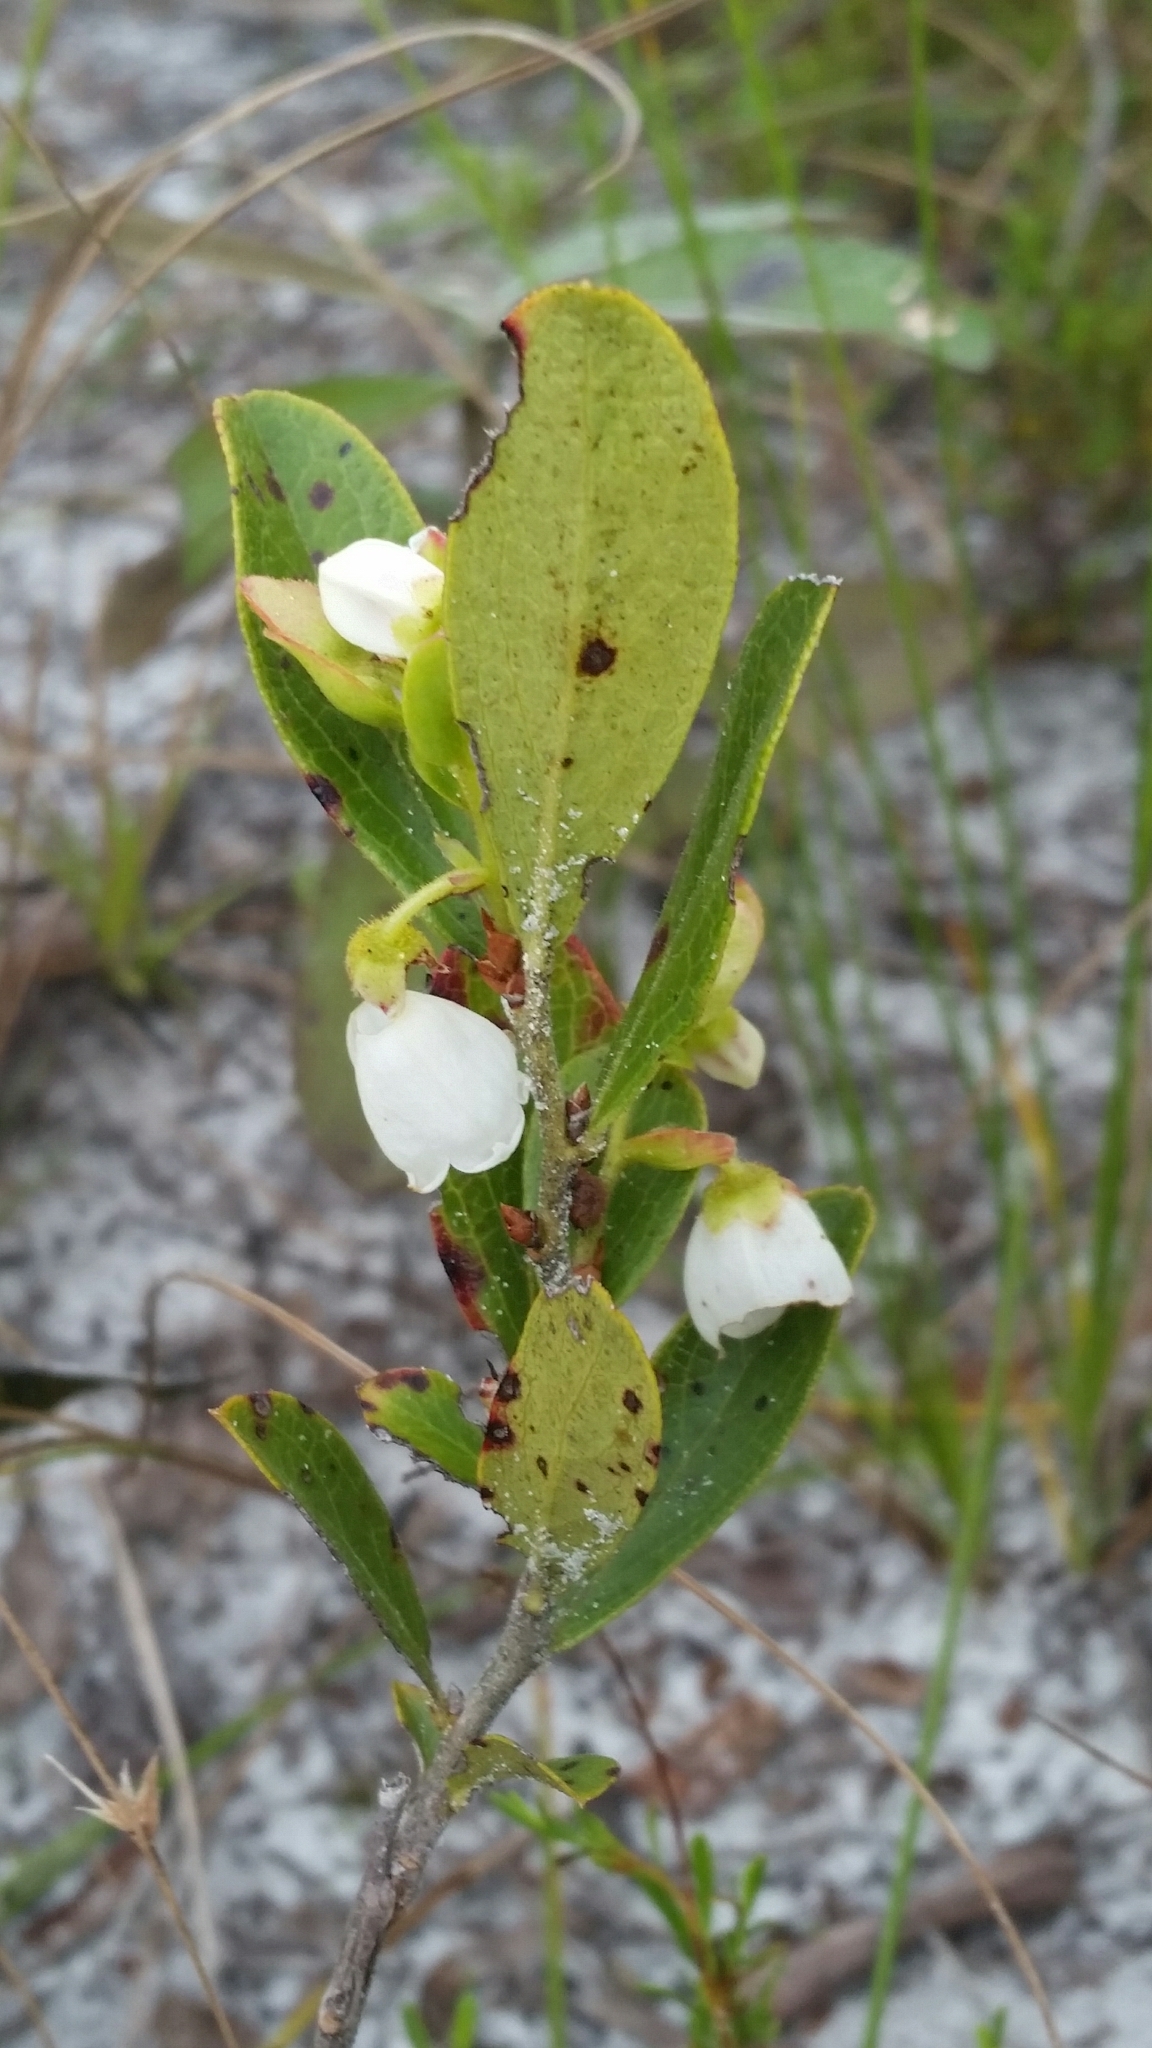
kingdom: Plantae
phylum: Tracheophyta
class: Magnoliopsida
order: Ericales
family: Ericaceae
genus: Gaylussacia
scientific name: Gaylussacia dumosa
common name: Dwarf huckleberry
